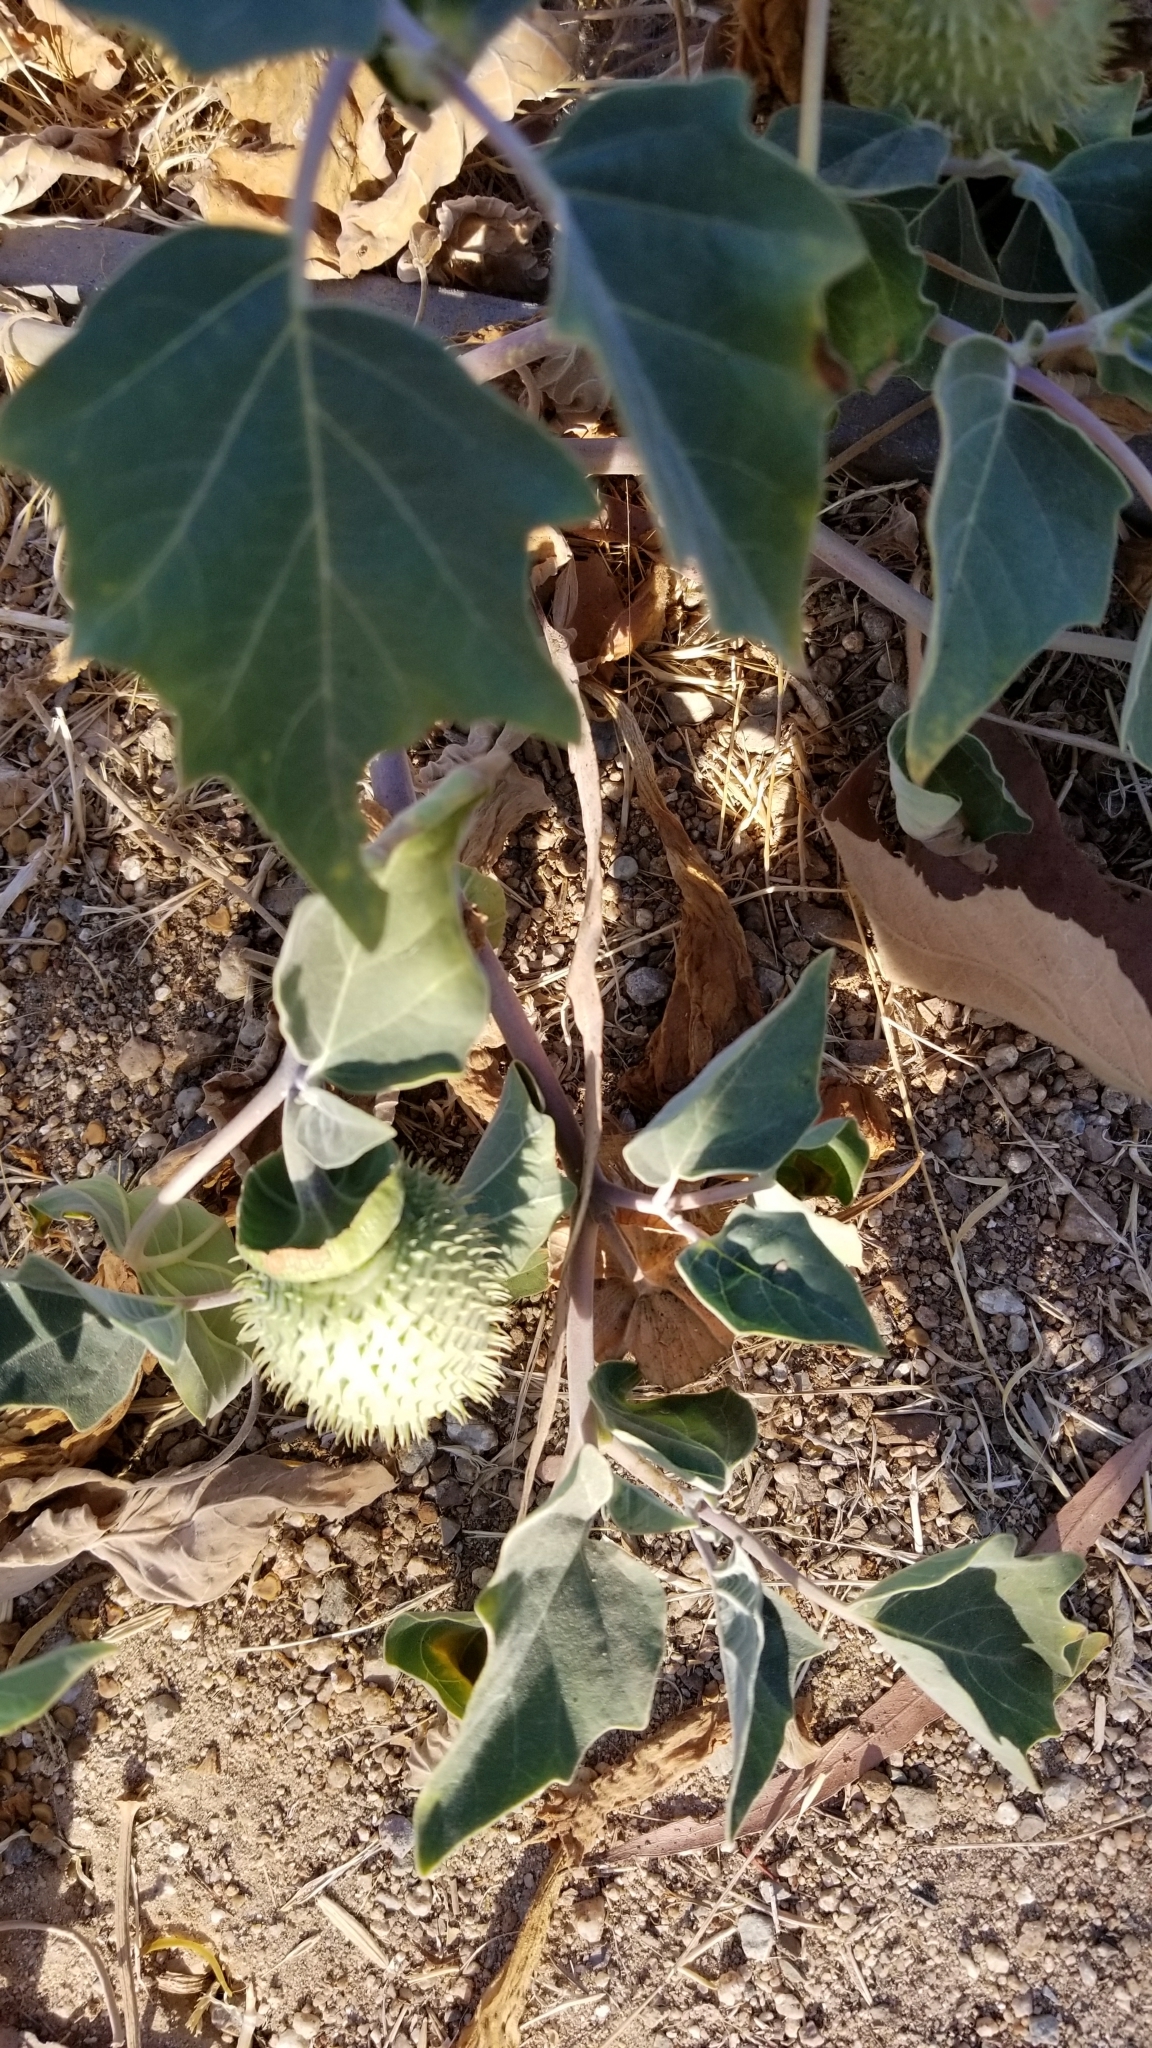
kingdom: Plantae
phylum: Tracheophyta
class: Magnoliopsida
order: Solanales
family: Solanaceae
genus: Datura
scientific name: Datura wrightii
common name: Sacred thorn-apple
